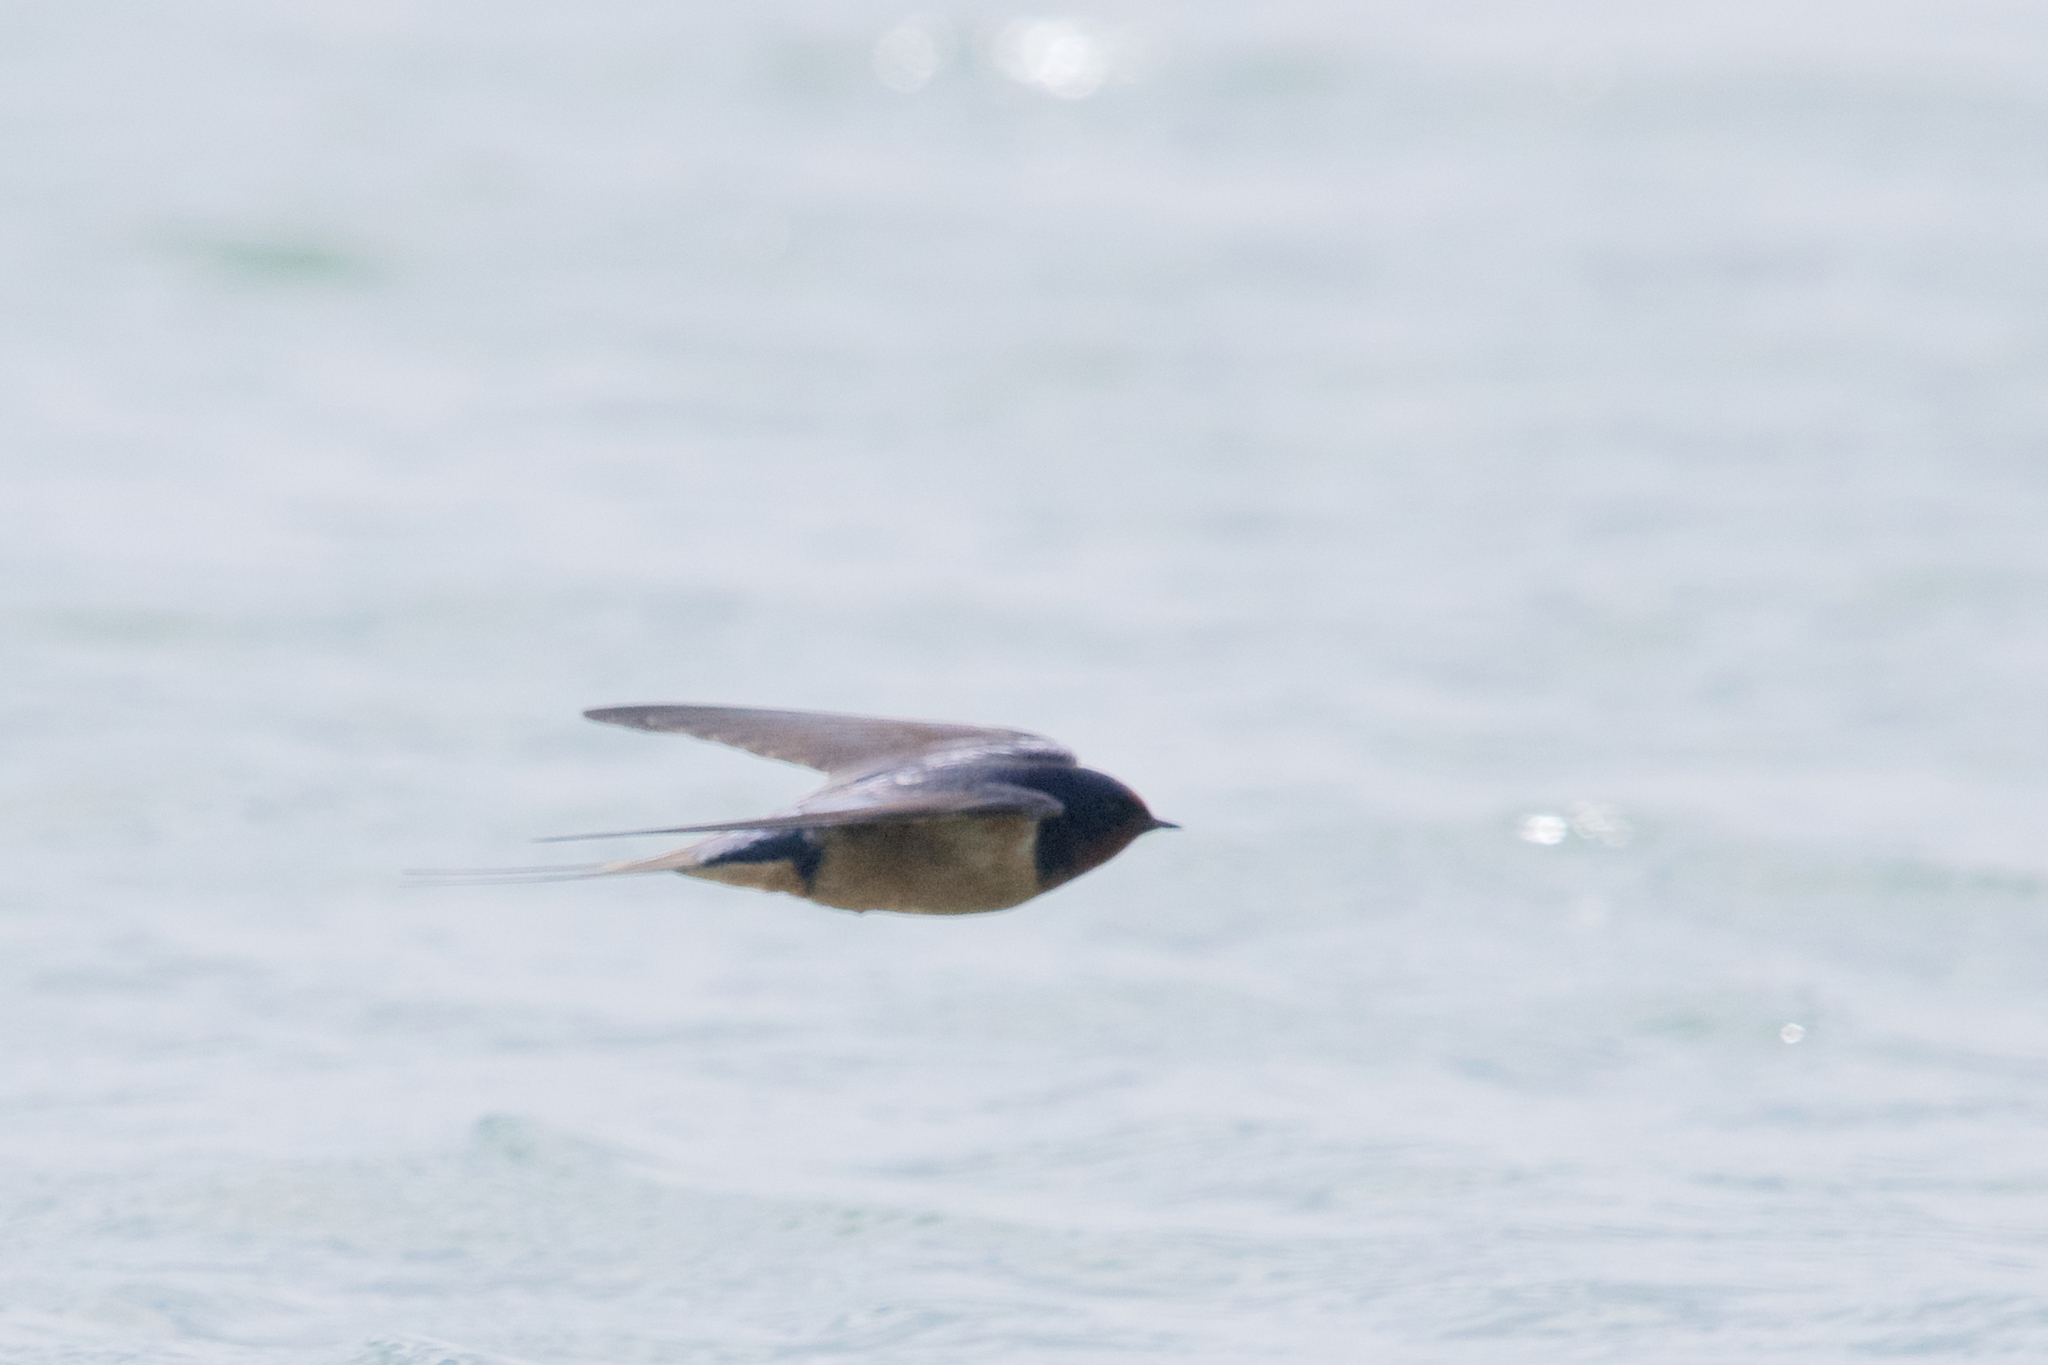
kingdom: Animalia
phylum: Chordata
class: Aves
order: Passeriformes
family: Hirundinidae
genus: Hirundo
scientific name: Hirundo rustica
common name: Barn swallow
